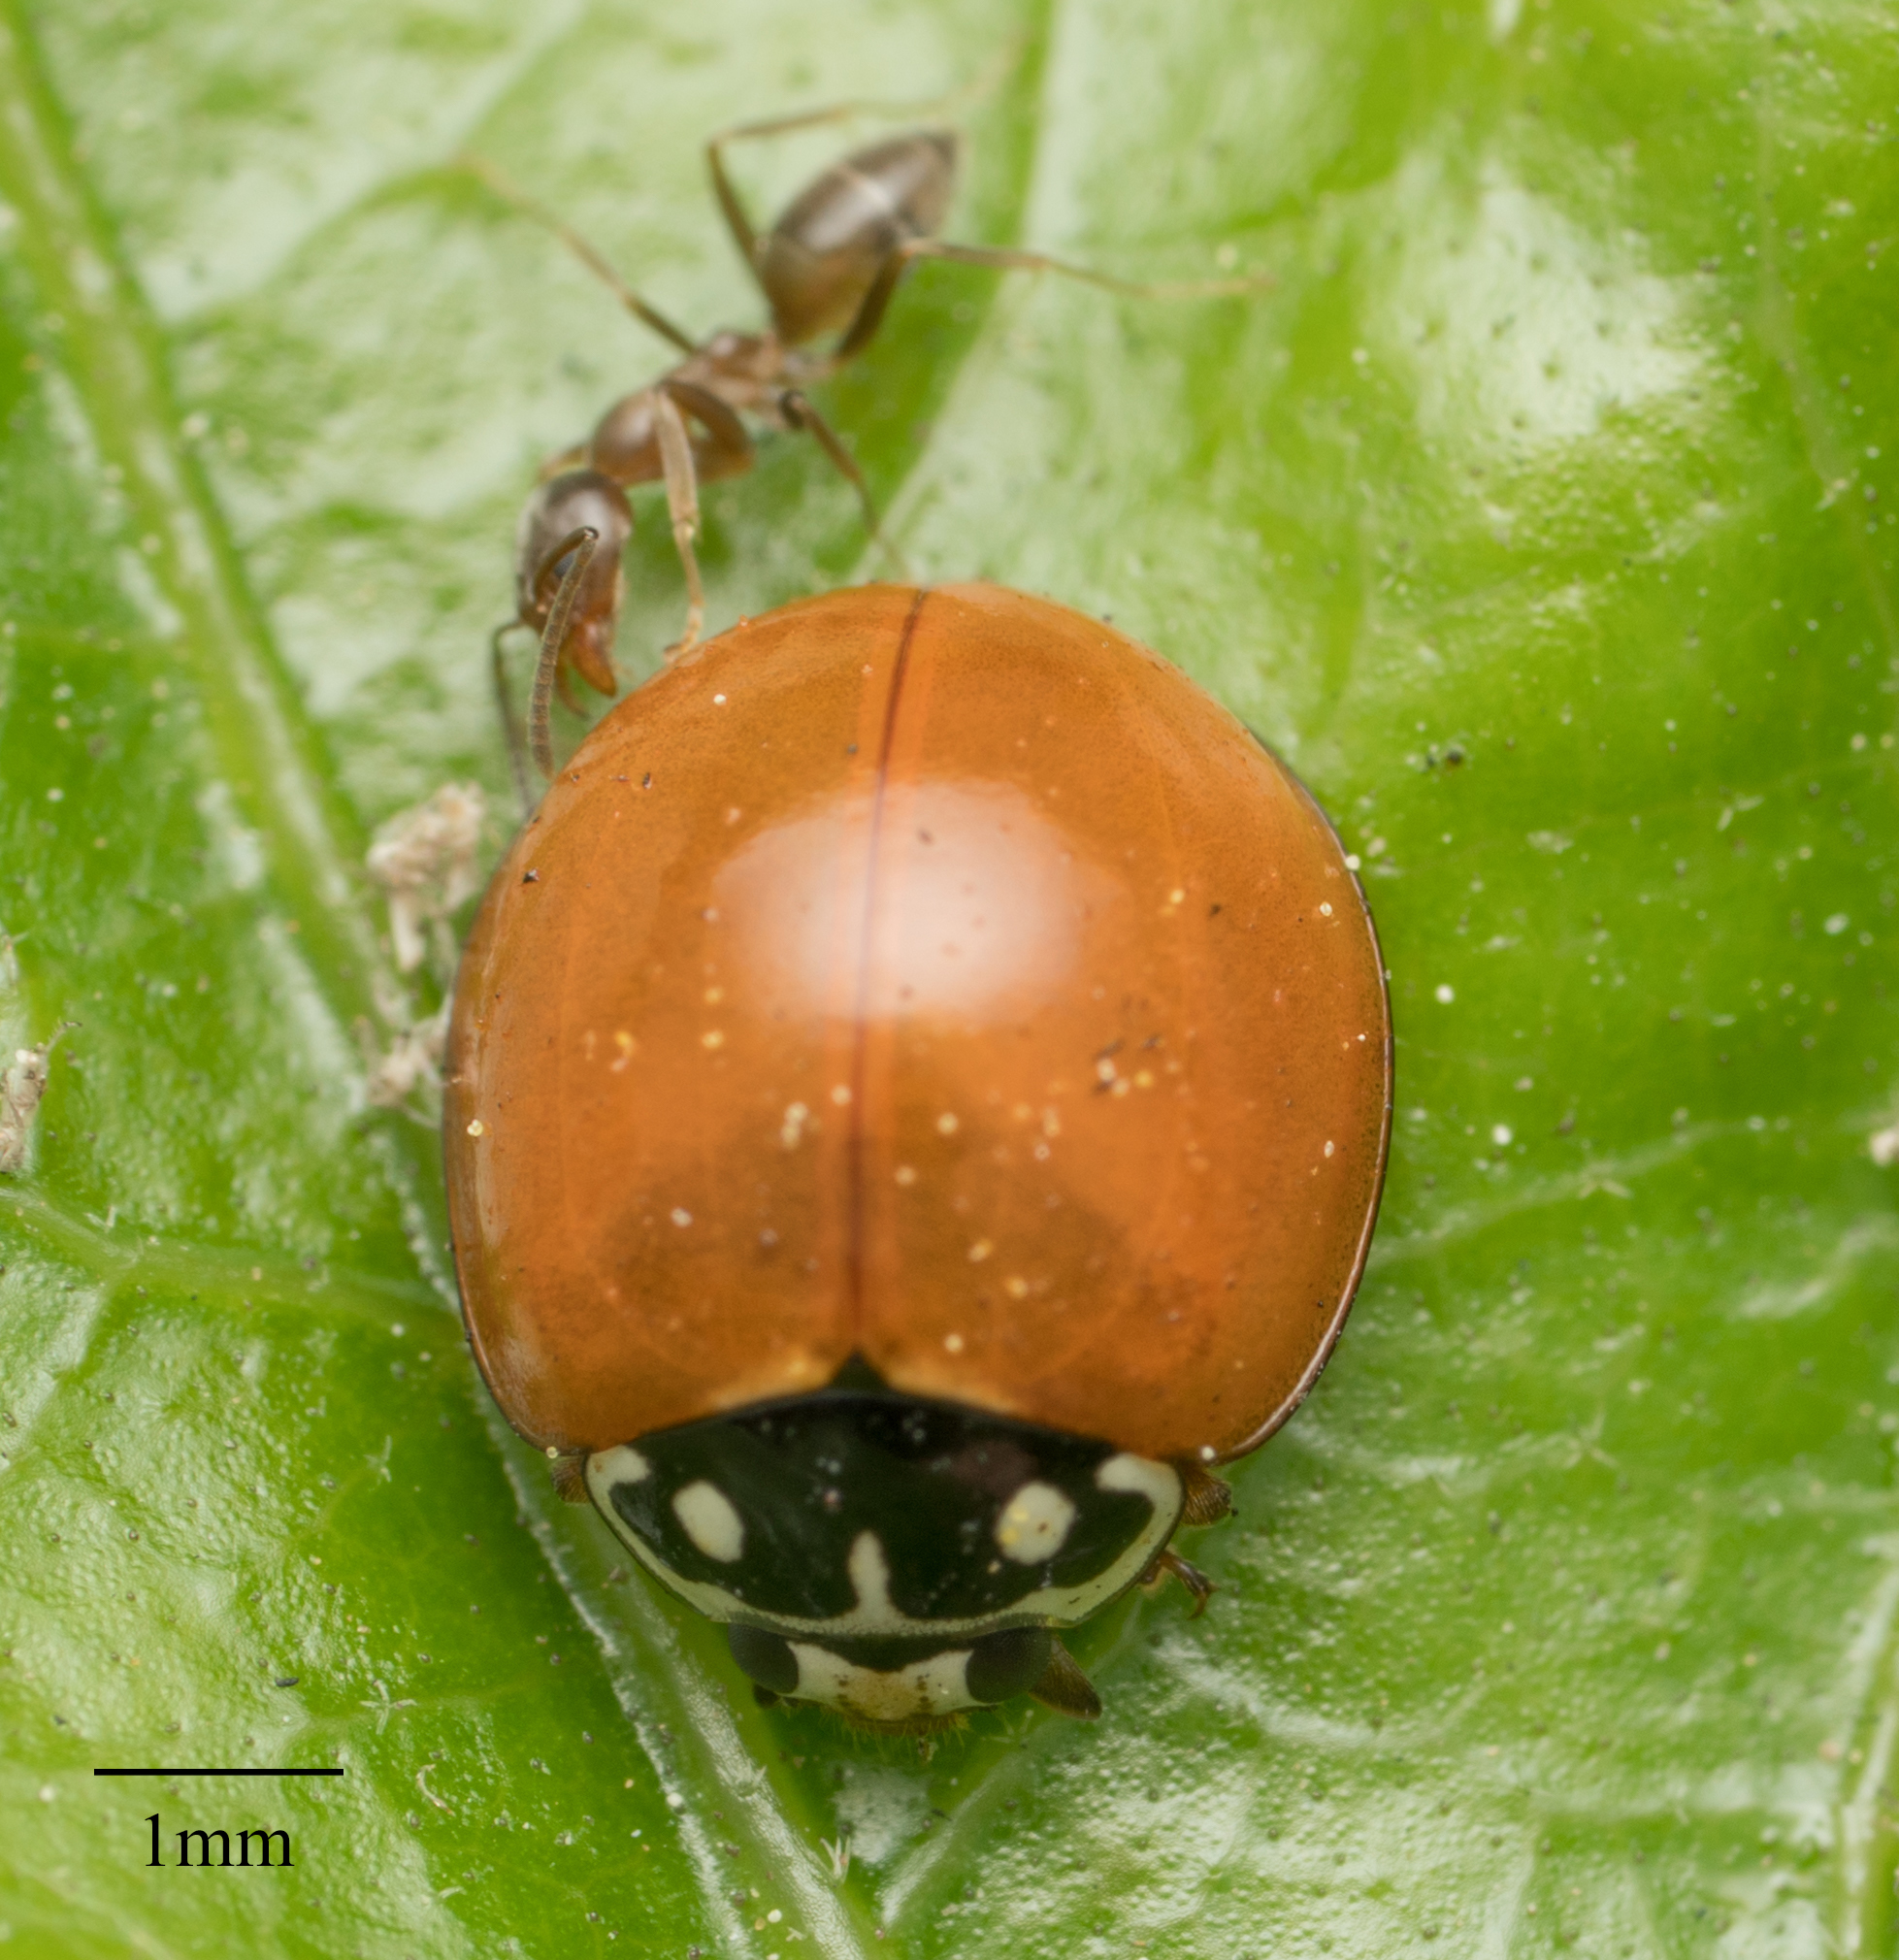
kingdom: Animalia
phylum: Arthropoda
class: Insecta
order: Coleoptera
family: Coccinellidae
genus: Cycloneda
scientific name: Cycloneda sanguinea
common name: Ladybird beetle
